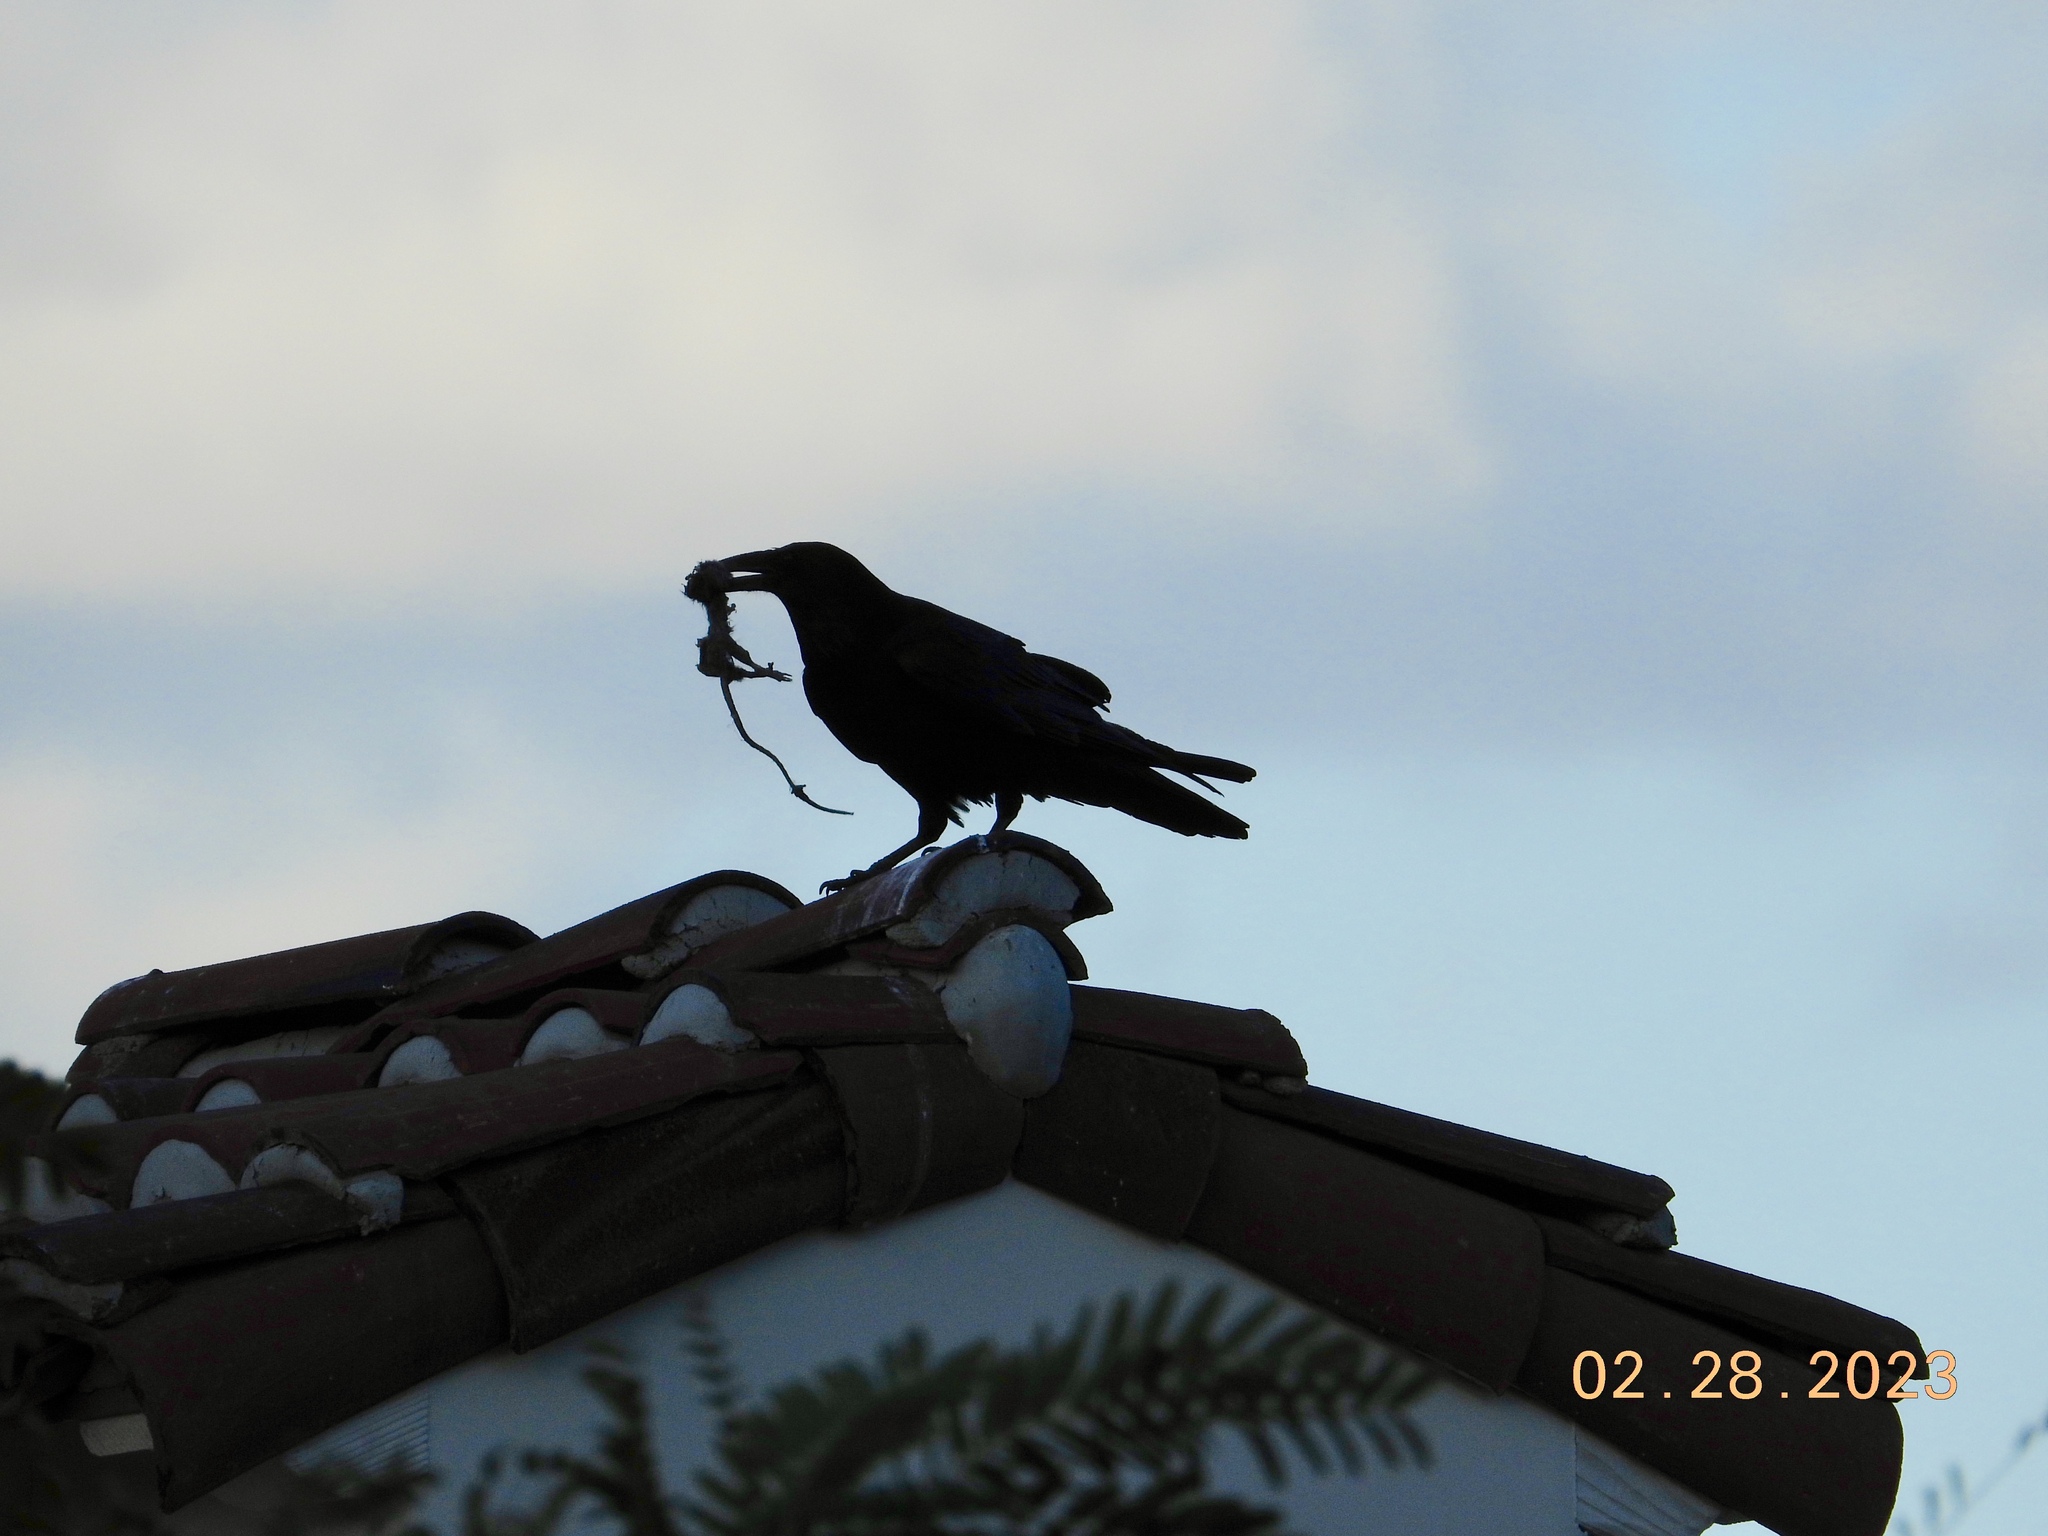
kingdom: Animalia
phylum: Chordata
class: Aves
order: Passeriformes
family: Corvidae
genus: Corvus
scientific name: Corvus corax
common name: Common raven
